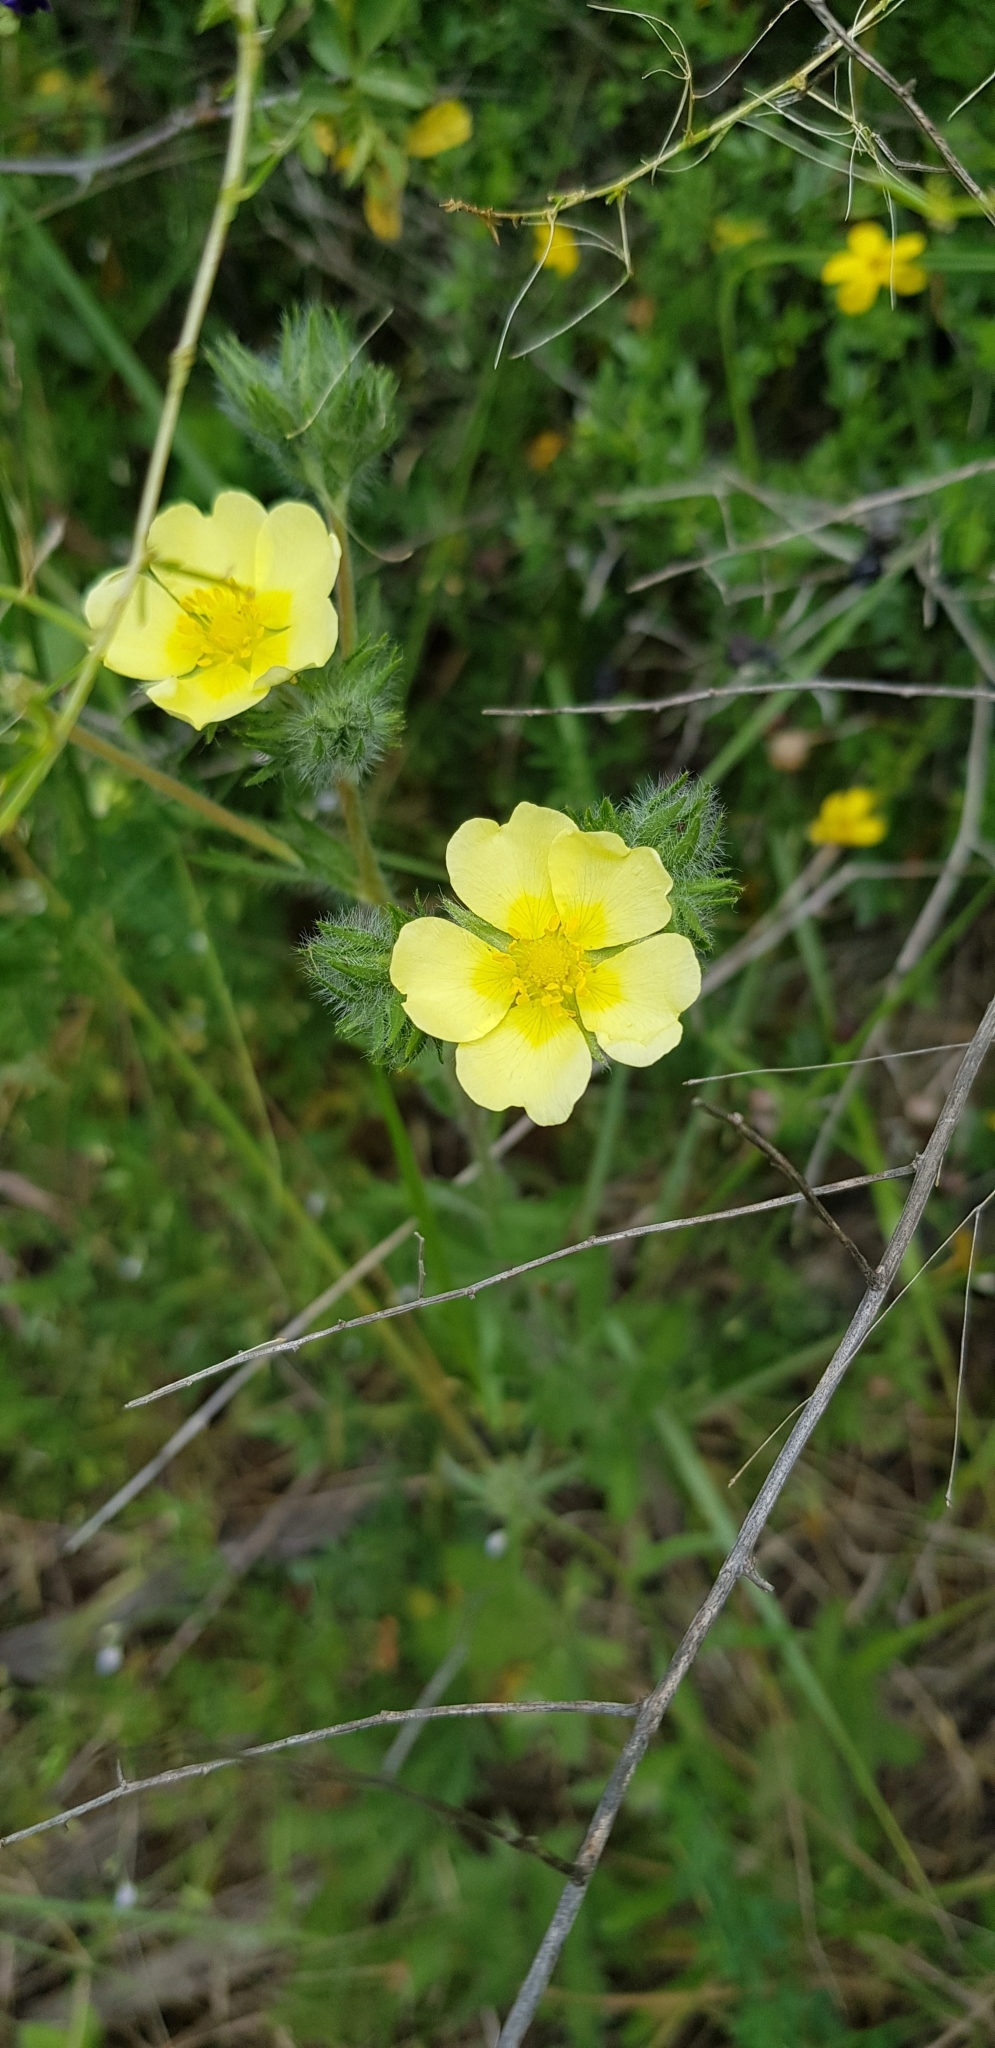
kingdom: Plantae
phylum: Tracheophyta
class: Magnoliopsida
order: Rosales
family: Rosaceae
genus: Potentilla
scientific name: Potentilla recta
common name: Sulphur cinquefoil
